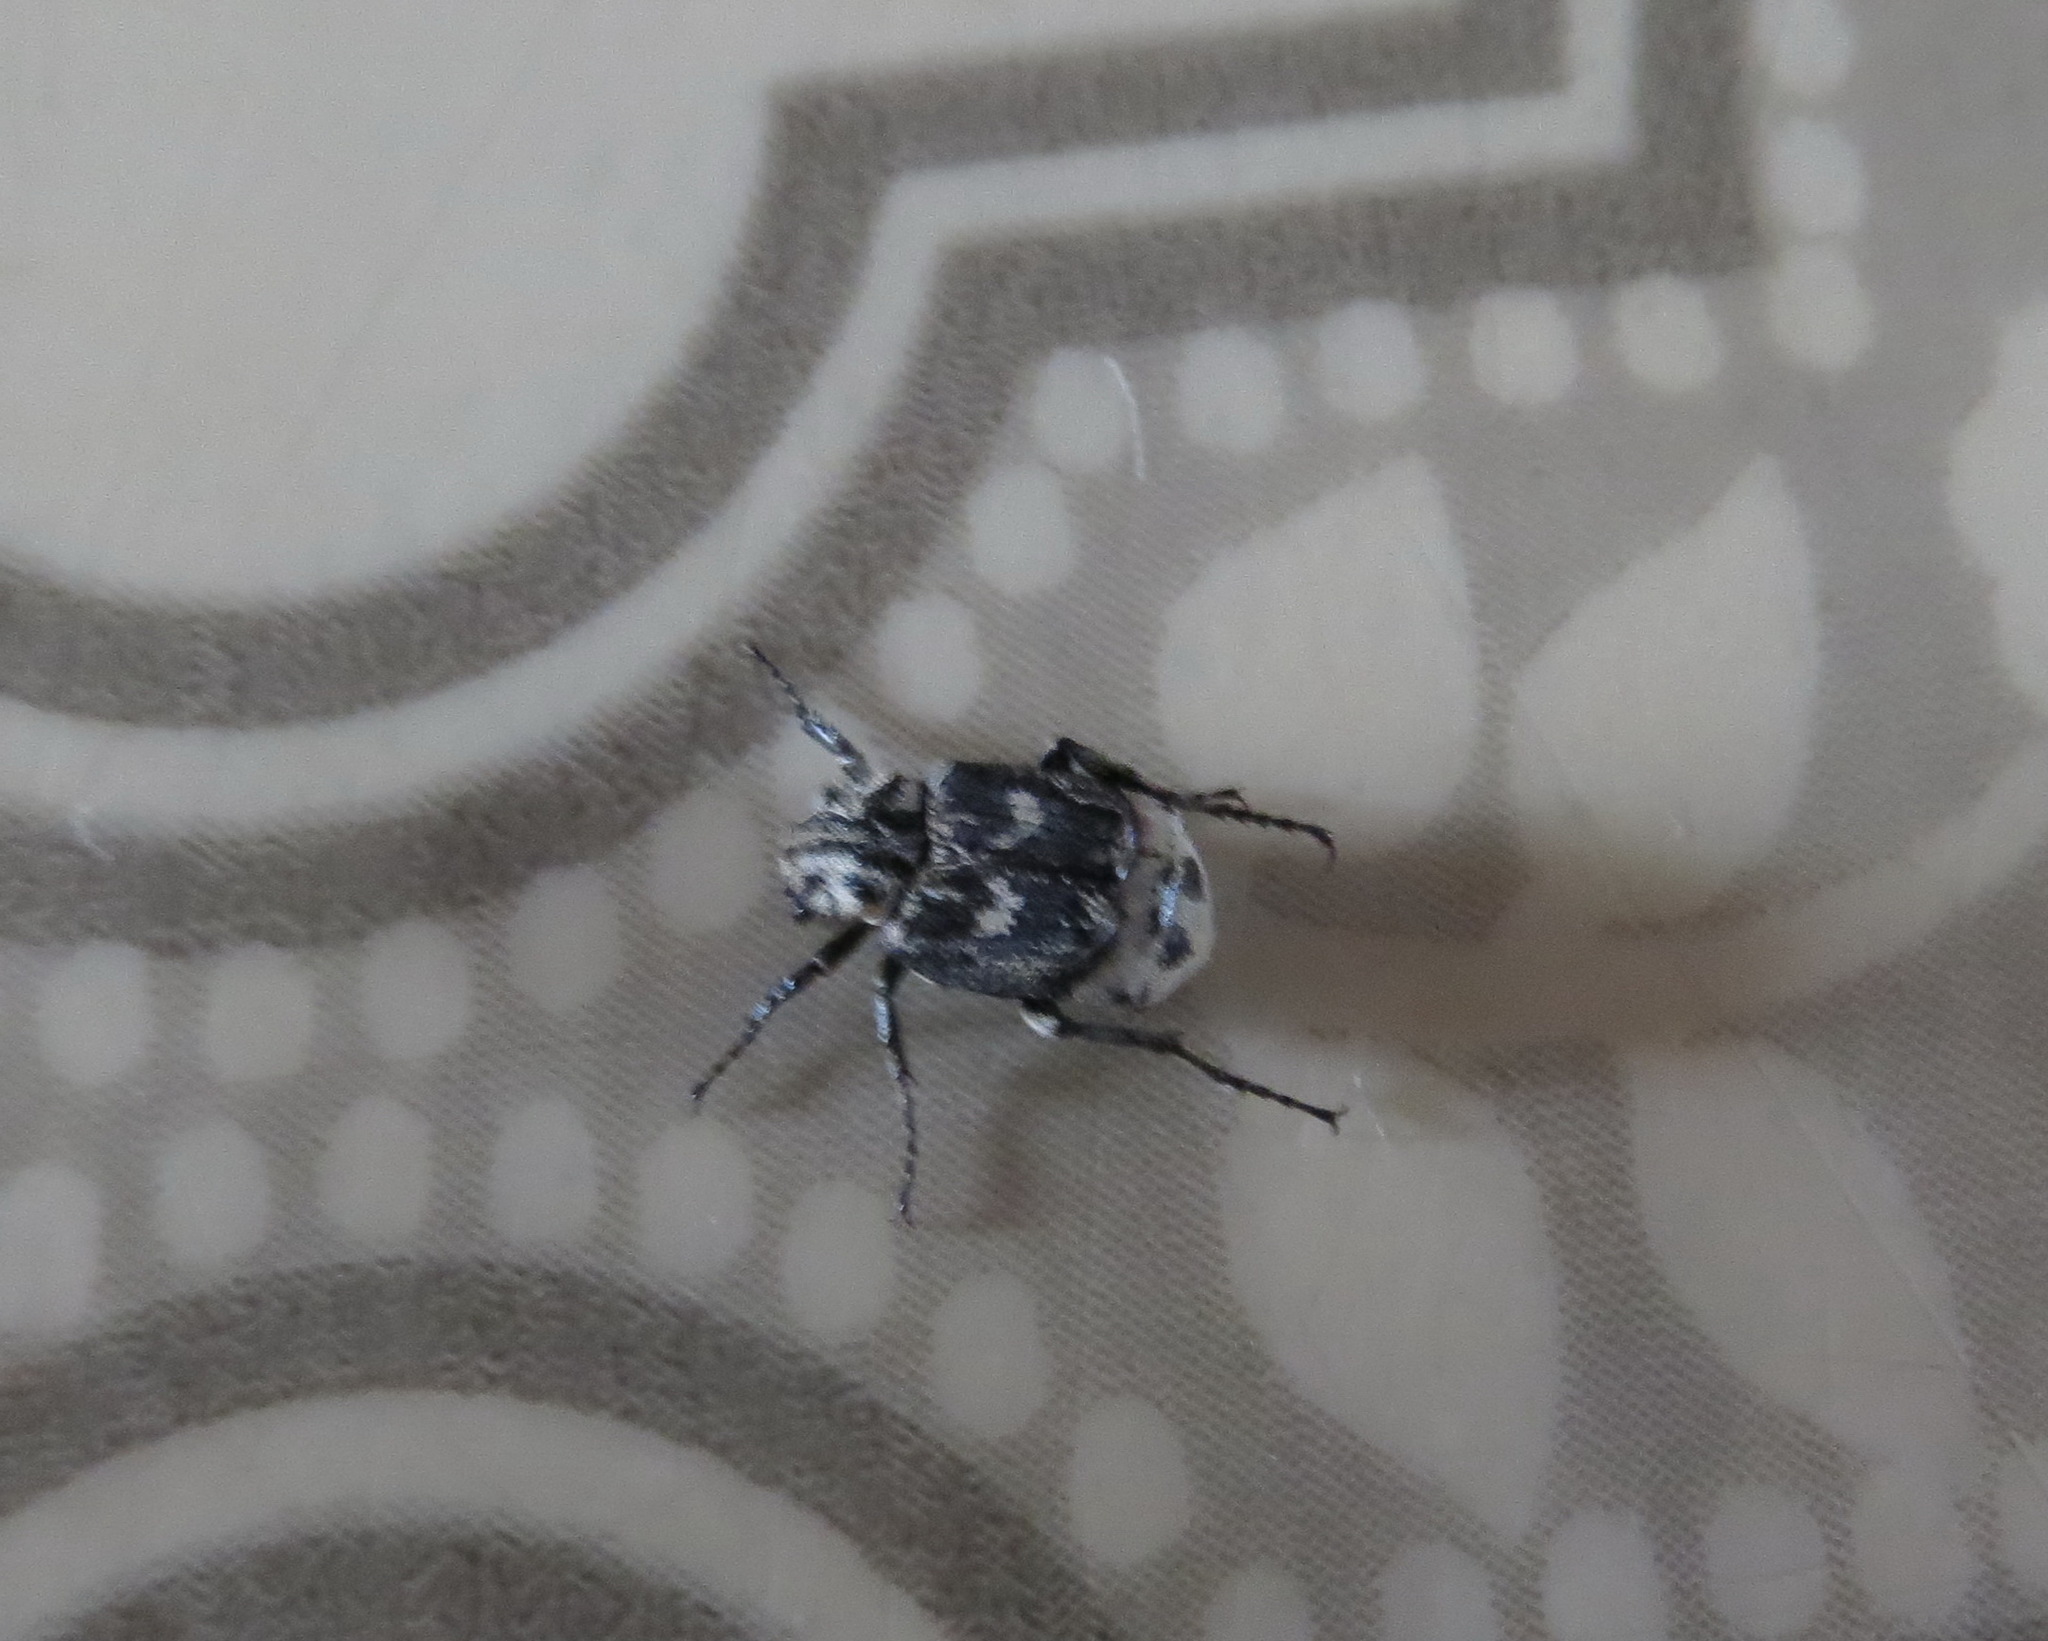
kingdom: Animalia
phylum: Arthropoda
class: Insecta
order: Coleoptera
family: Scarabaeidae
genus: Valgus
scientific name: Valgus hemipterus
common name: Bug flower chafer
